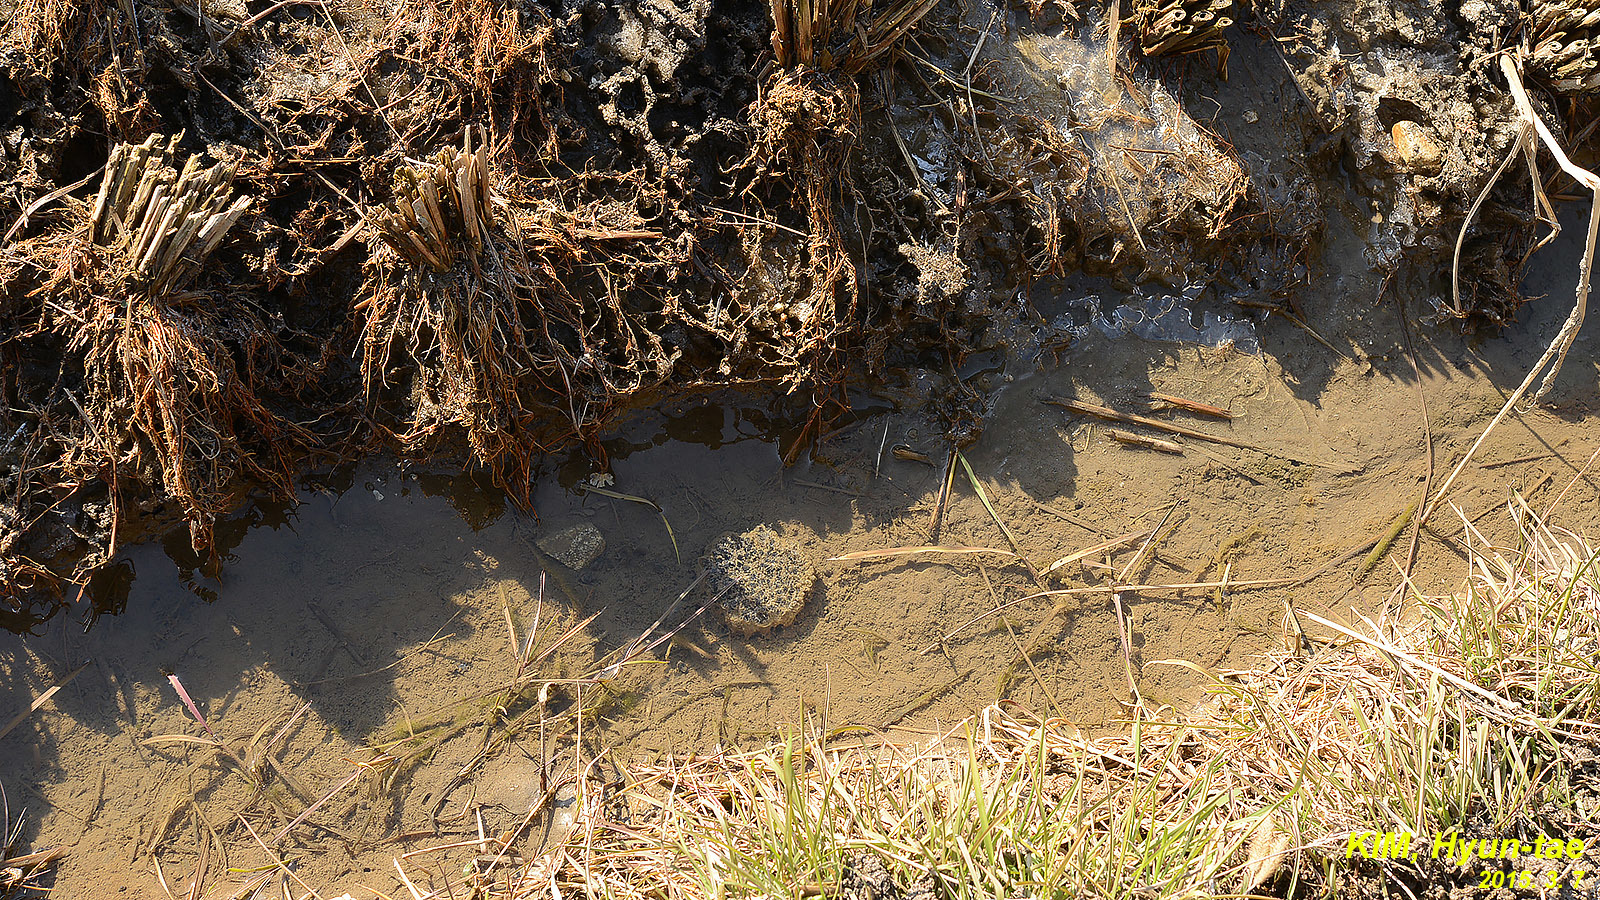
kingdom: Animalia
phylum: Chordata
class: Amphibia
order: Anura
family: Ranidae
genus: Rana
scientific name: Rana coreana
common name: Korean brown frog
